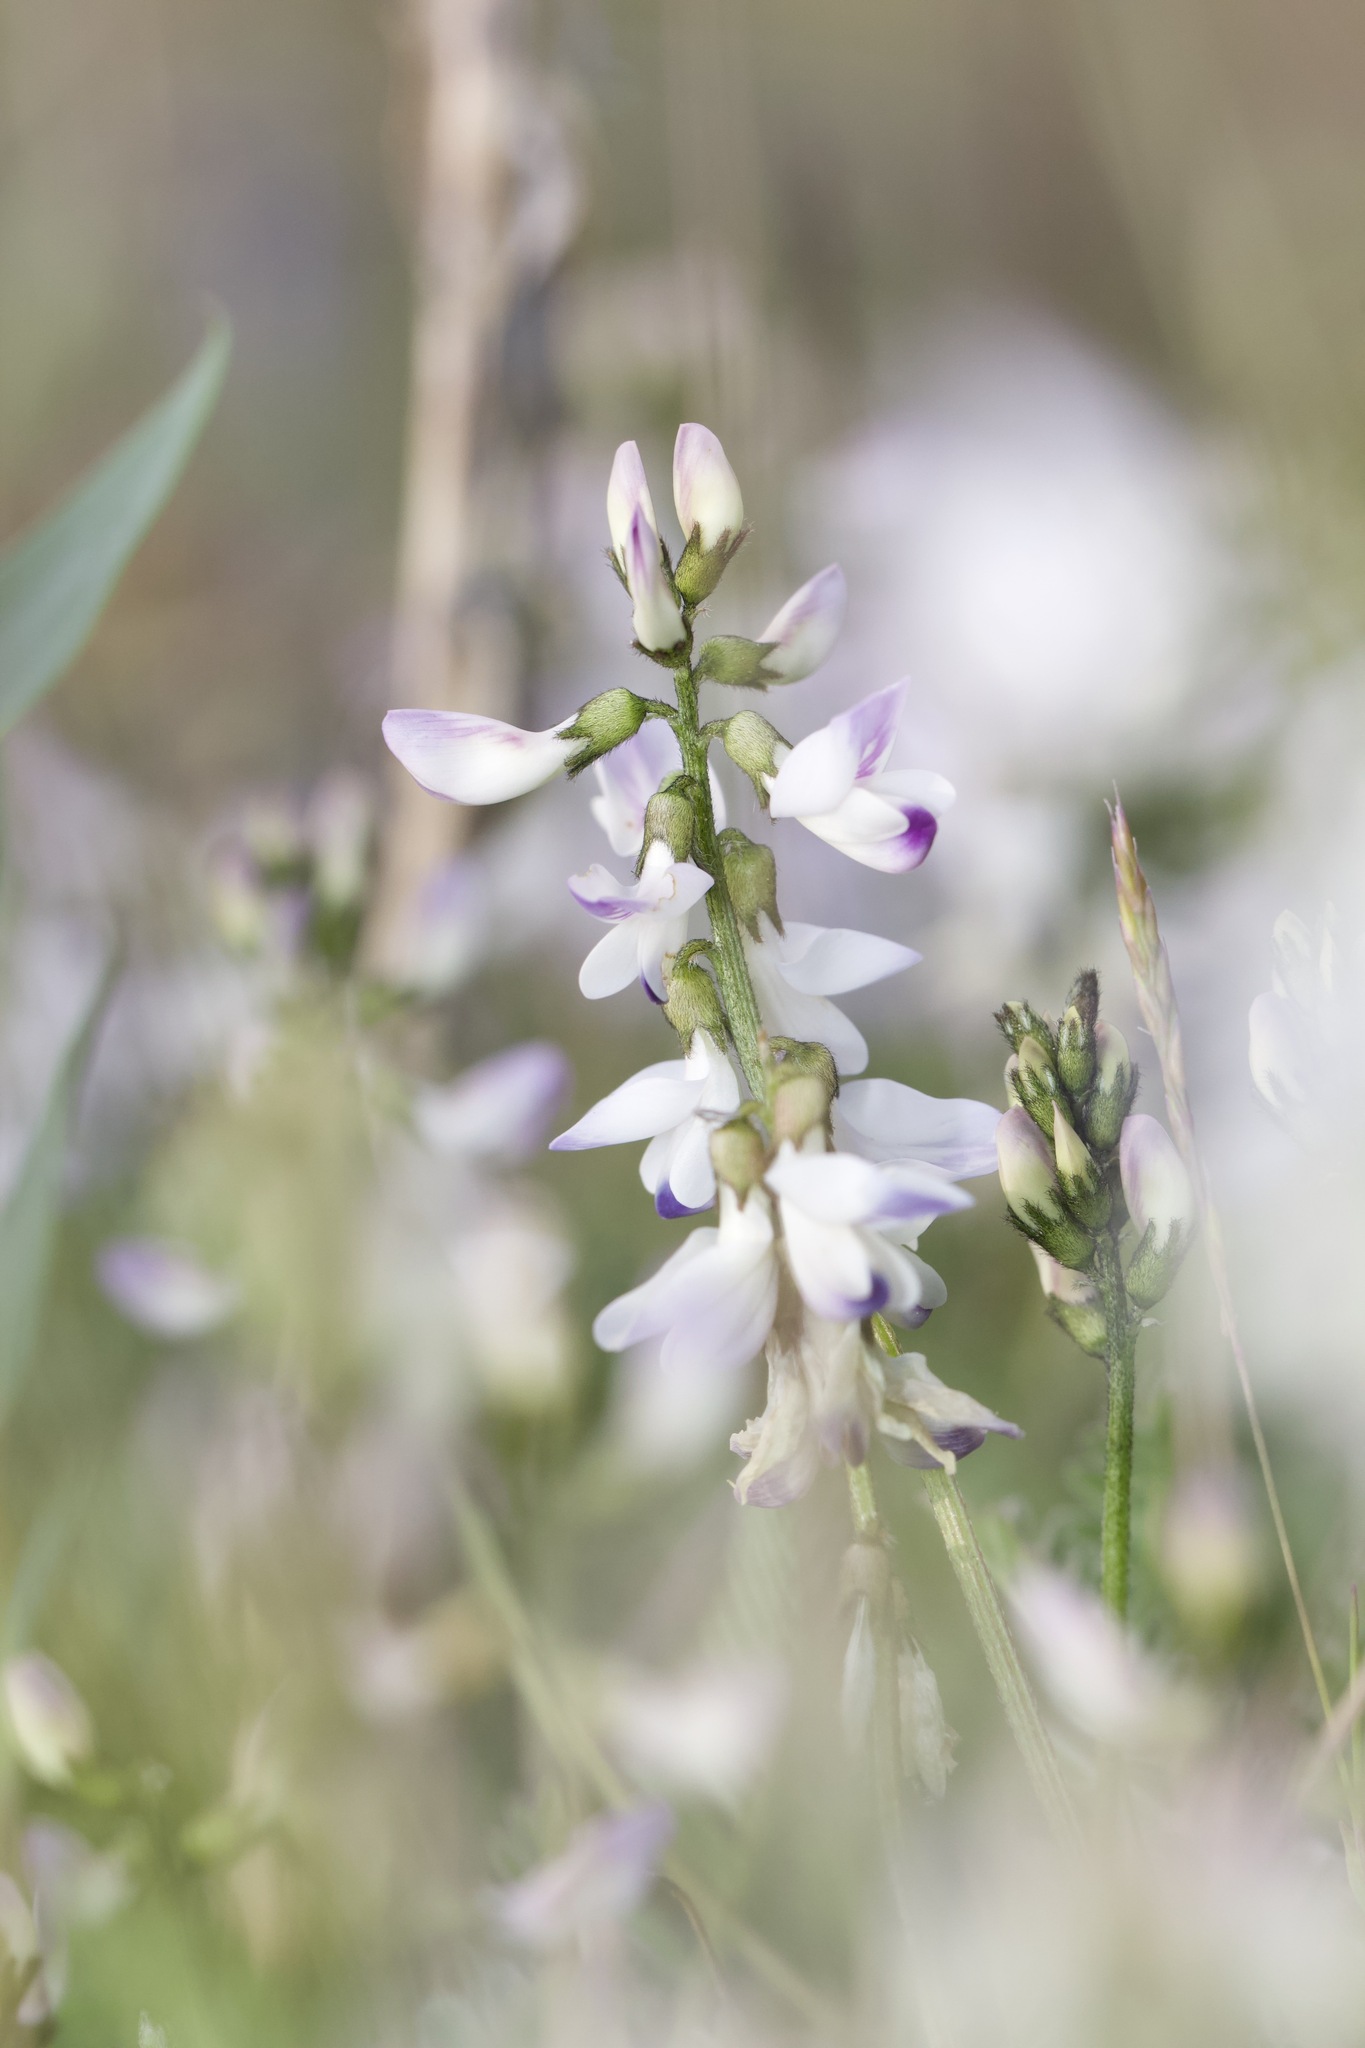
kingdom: Plantae
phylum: Tracheophyta
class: Magnoliopsida
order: Fabales
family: Fabaceae
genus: Astragalus
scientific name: Astragalus alpinus
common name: Alpine milk-vetch
